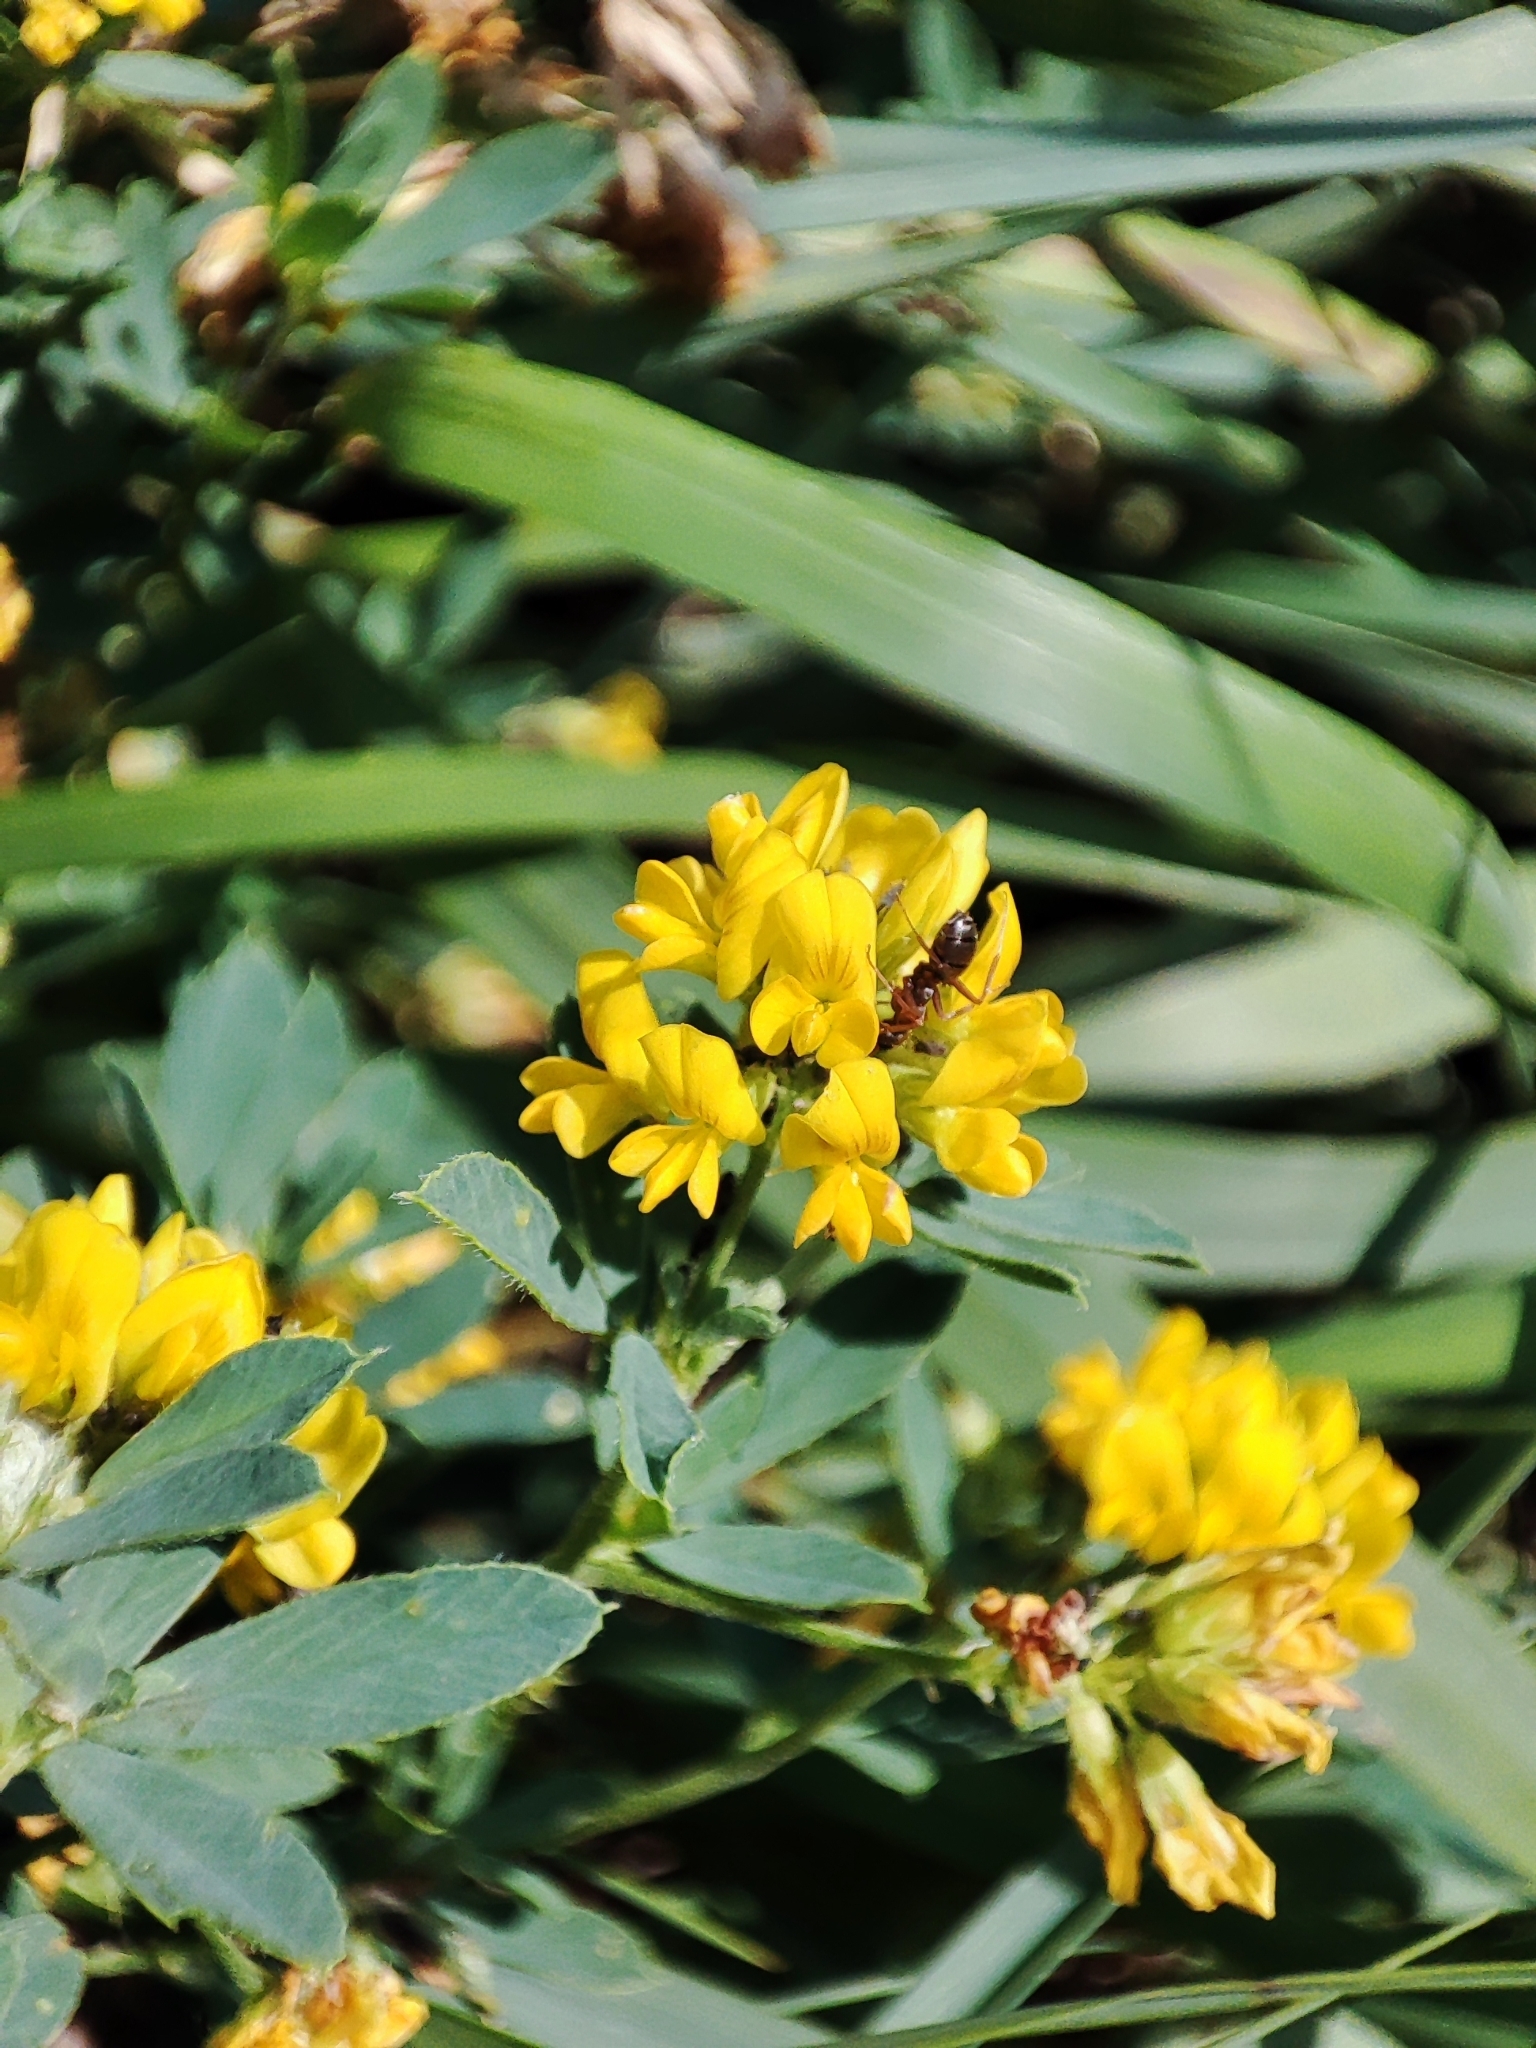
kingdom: Plantae
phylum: Tracheophyta
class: Magnoliopsida
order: Fabales
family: Fabaceae
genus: Medicago
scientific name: Medicago falcata
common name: Sickle medick
